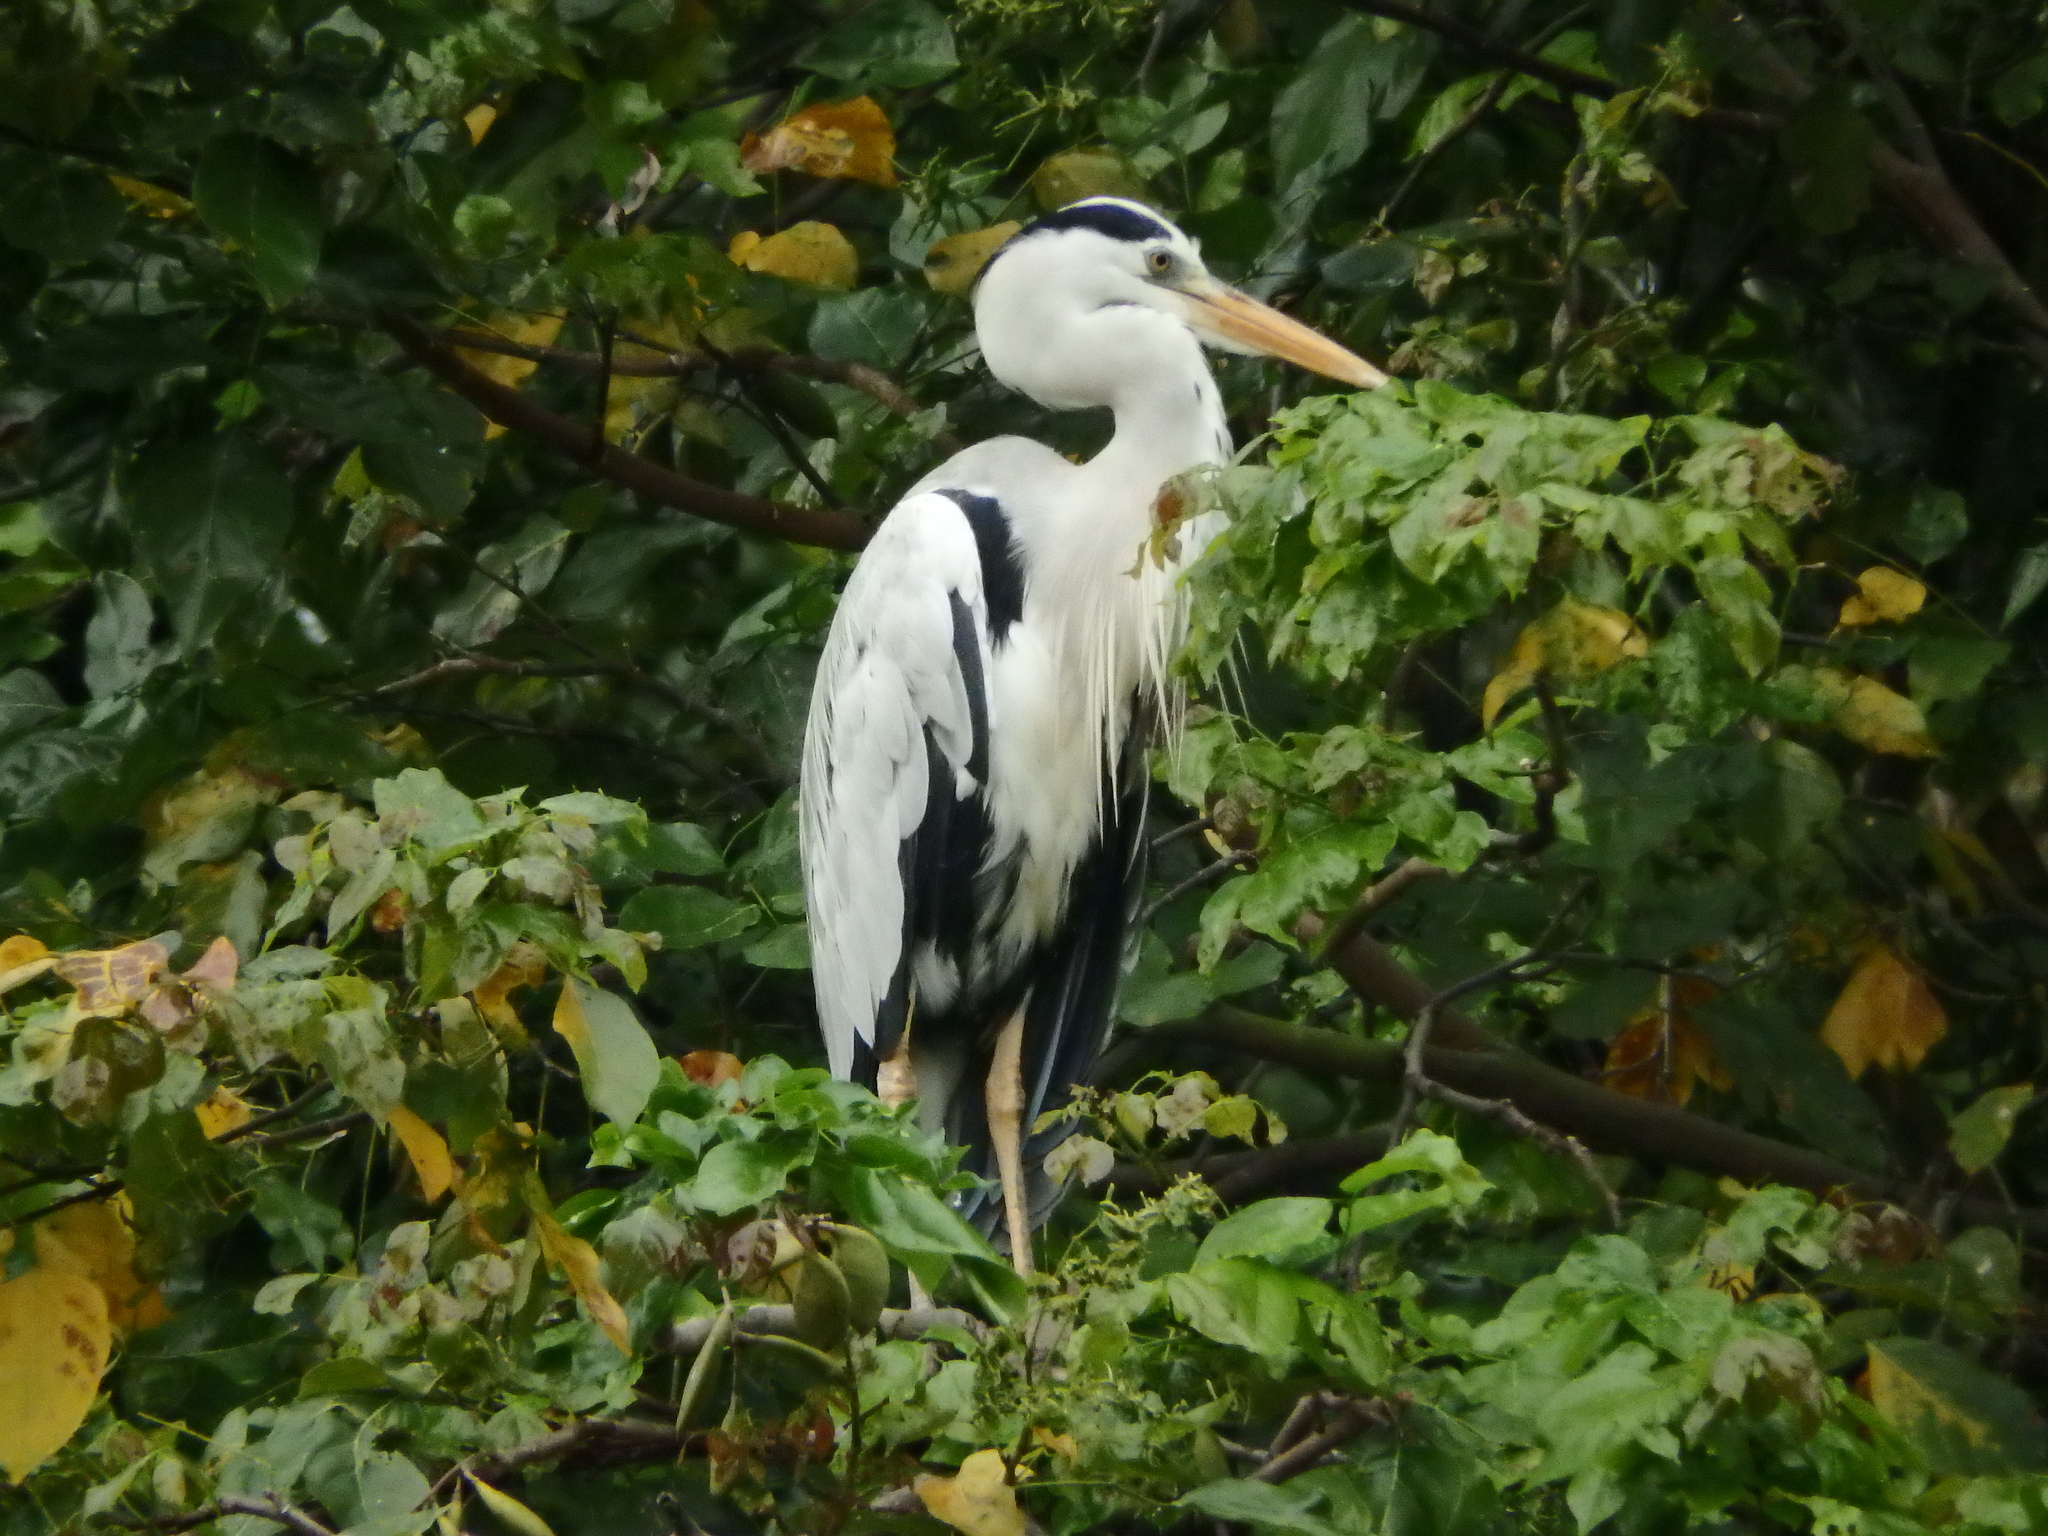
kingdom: Animalia
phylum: Chordata
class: Aves
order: Pelecaniformes
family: Ardeidae
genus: Ardea
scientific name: Ardea cinerea
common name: Grey heron
